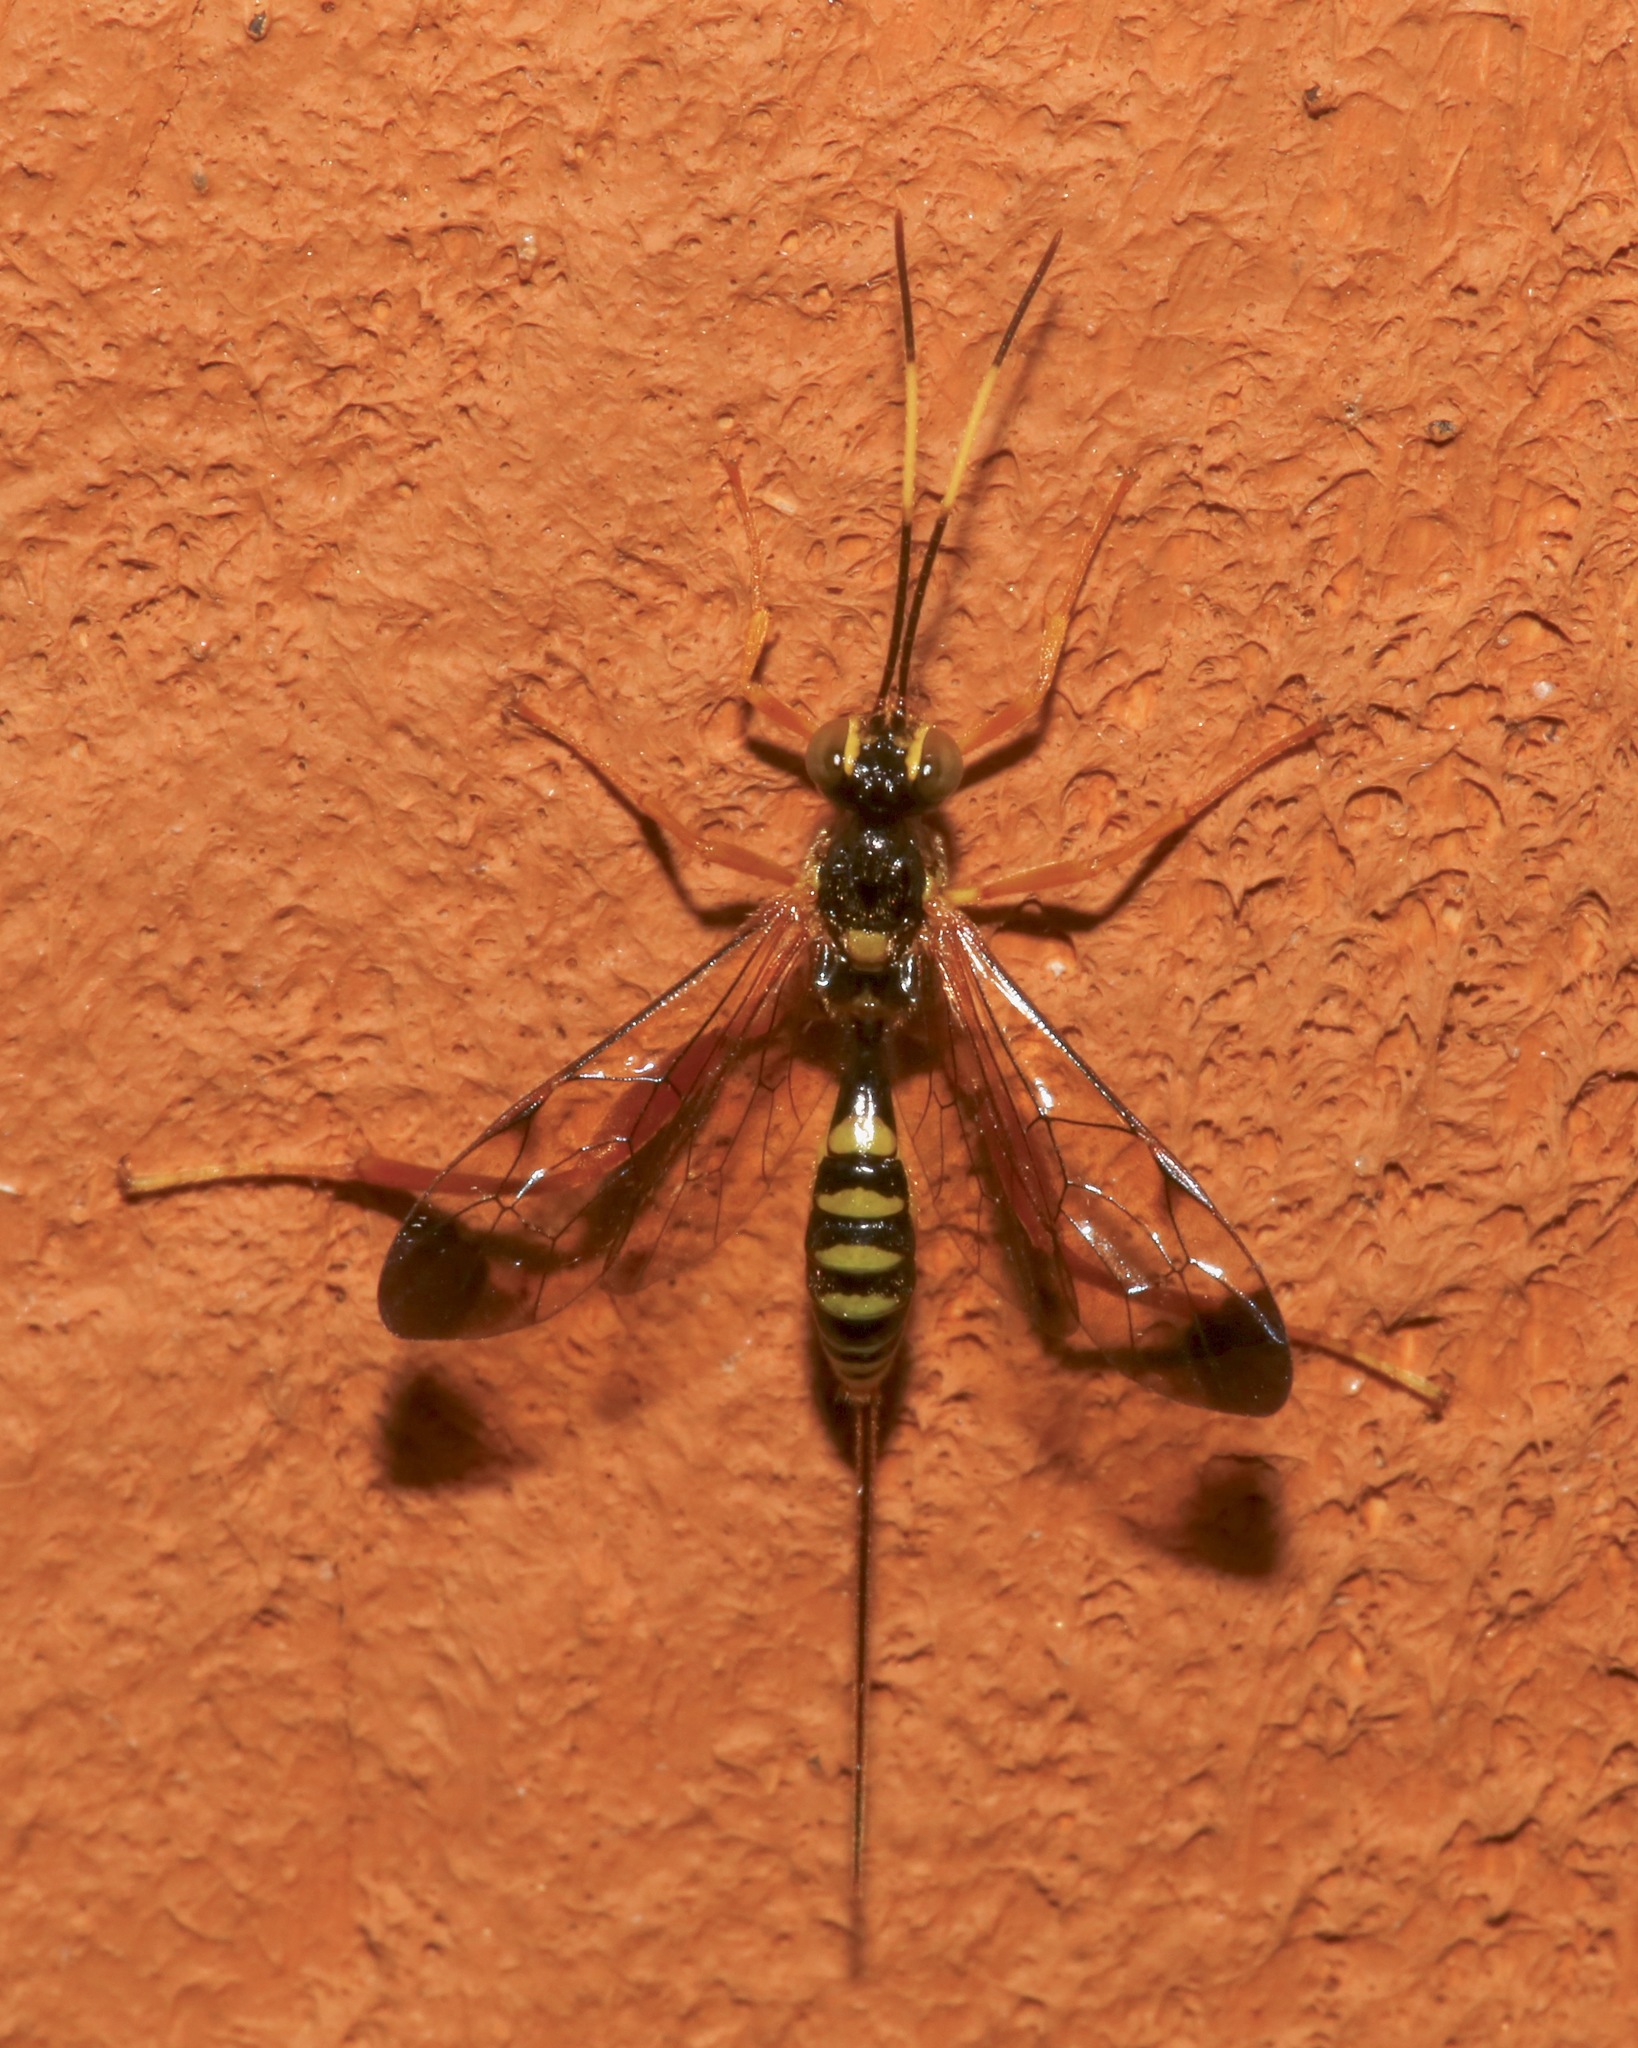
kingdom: Animalia
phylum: Arthropoda
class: Insecta
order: Hymenoptera
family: Ichneumonidae
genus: Spilopteron
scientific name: Spilopteron occiputale
